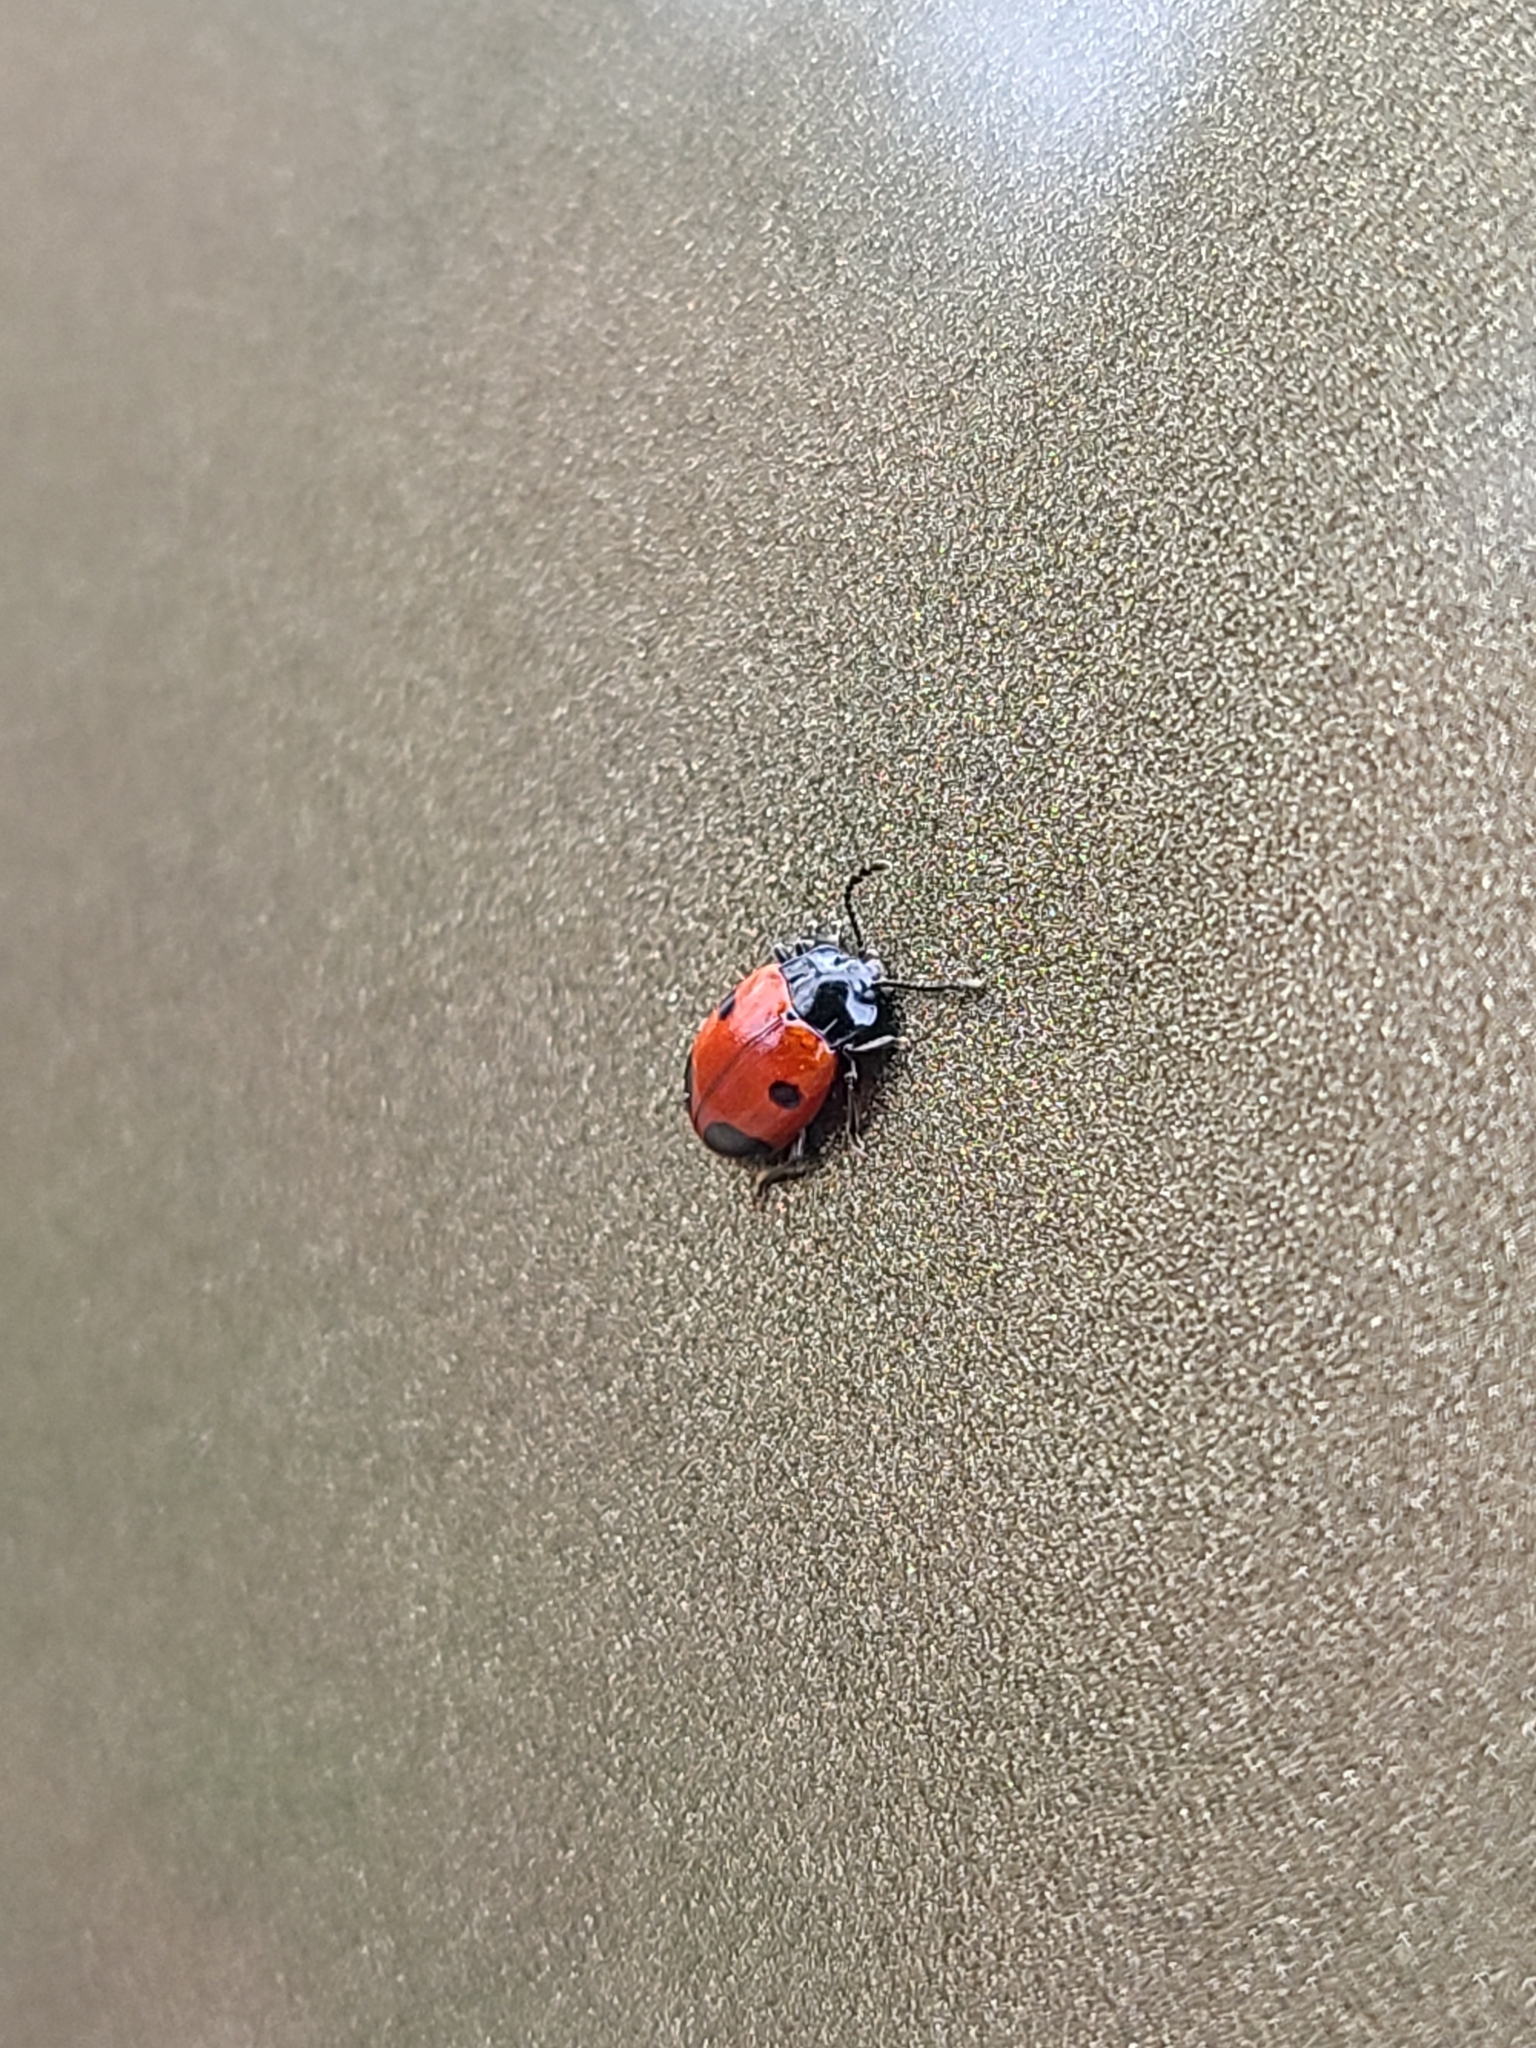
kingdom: Animalia
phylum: Arthropoda
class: Insecta
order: Coleoptera
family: Endomychidae
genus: Endomychus
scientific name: Endomychus biguttatus
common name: Handsome fungus beetle
